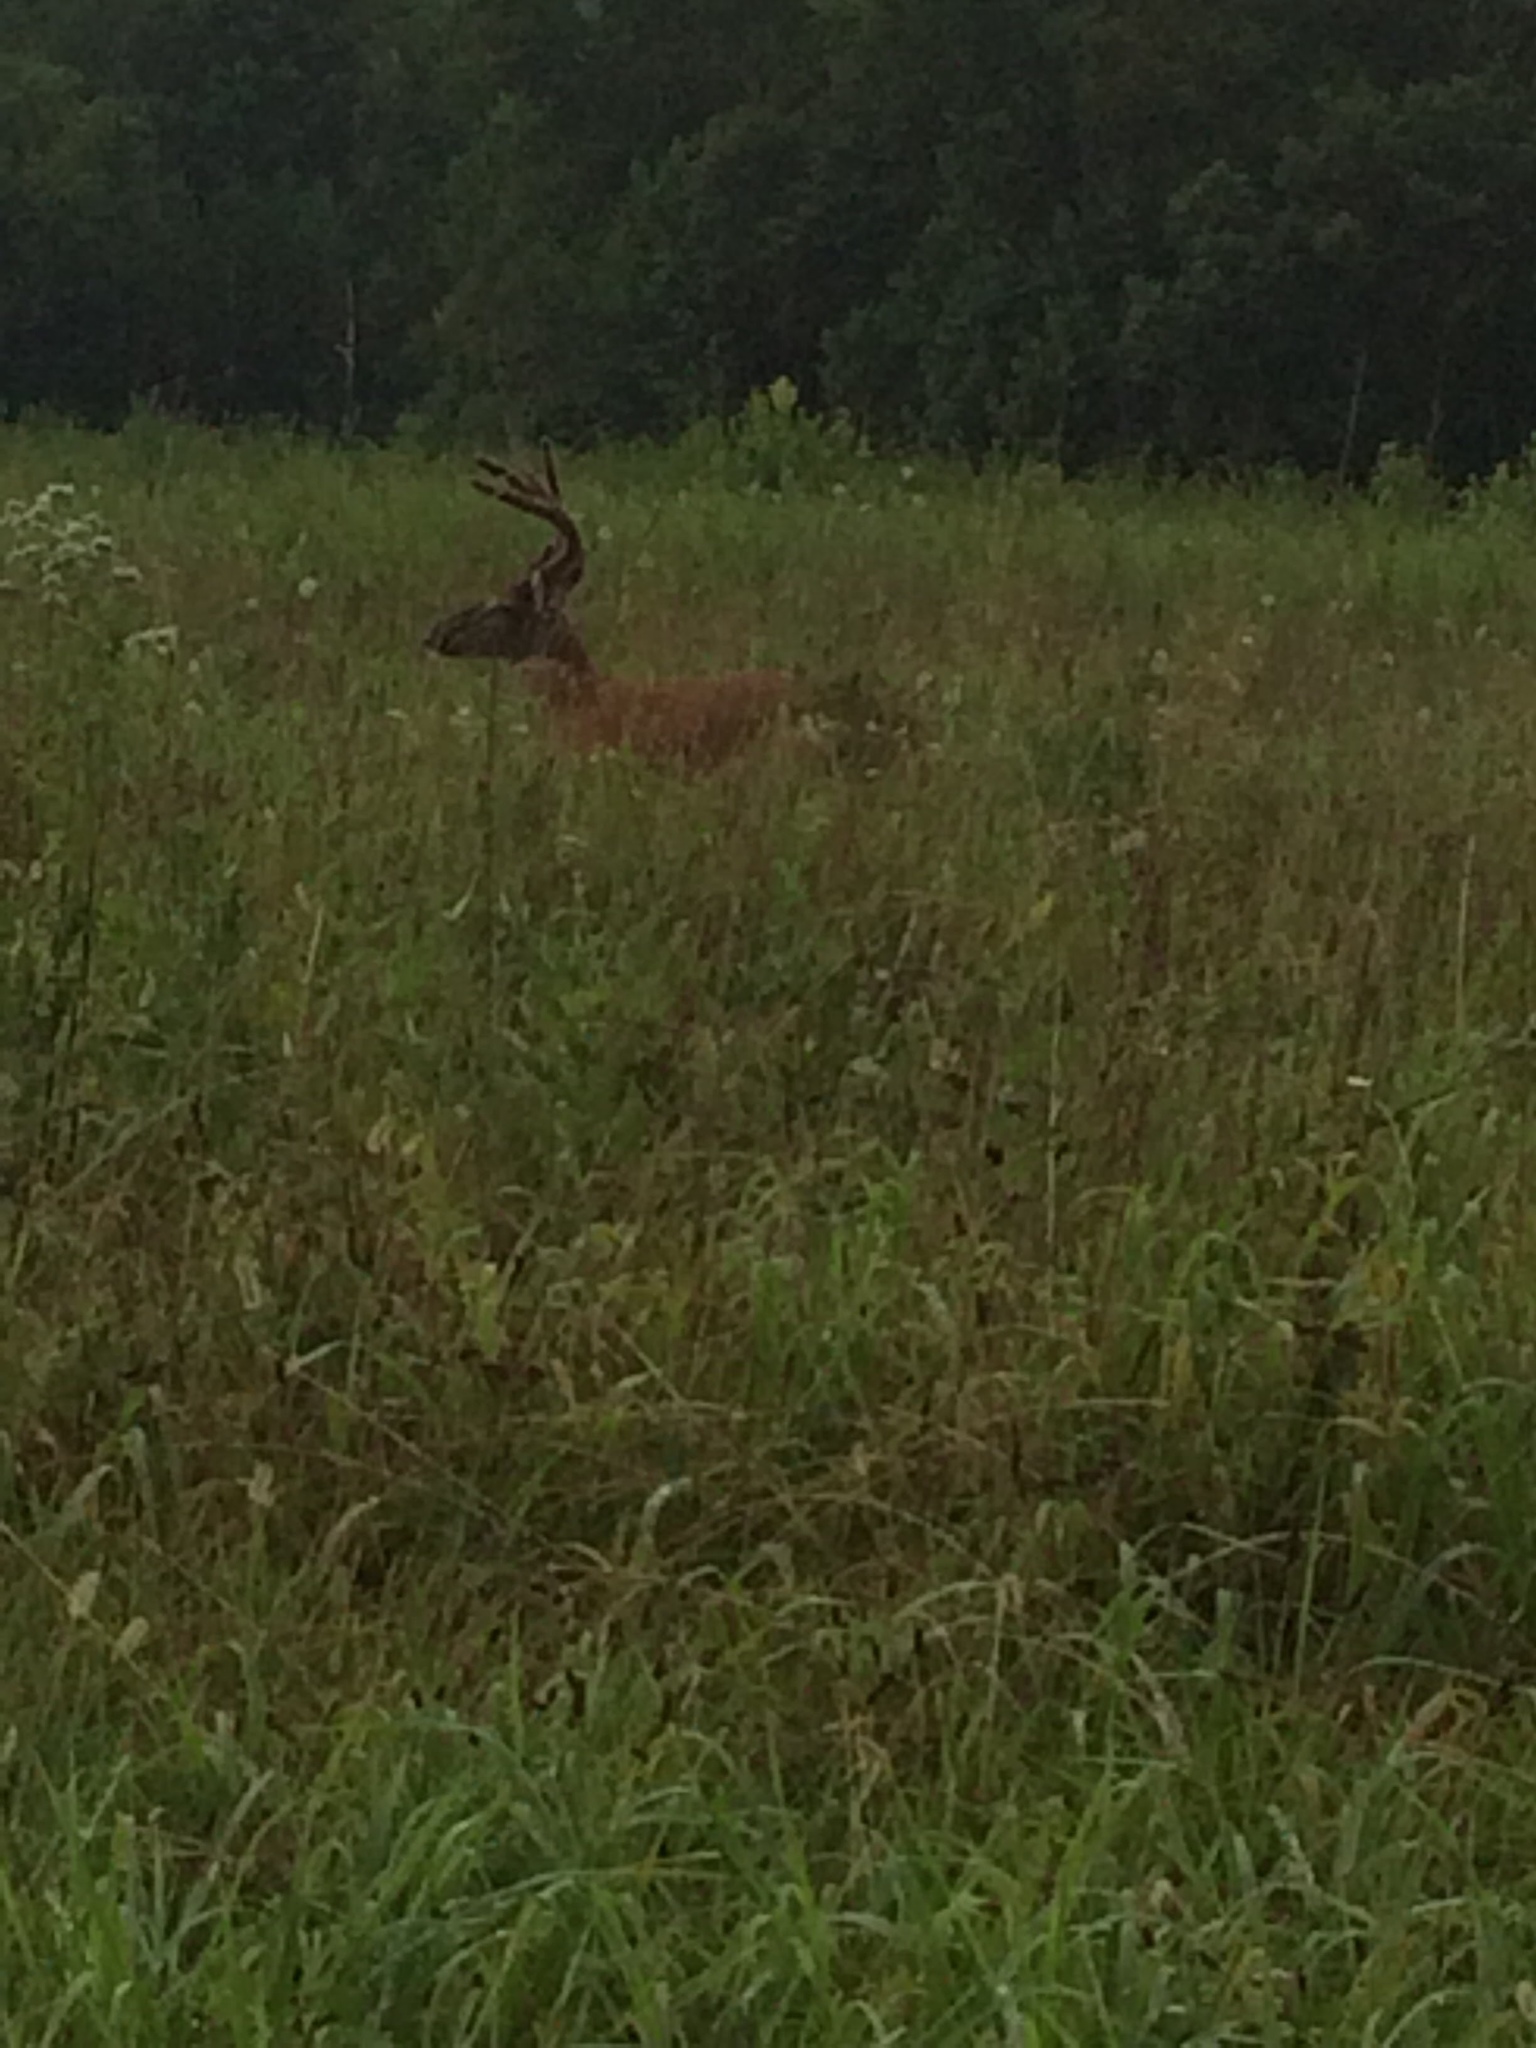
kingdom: Animalia
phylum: Chordata
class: Mammalia
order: Artiodactyla
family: Cervidae
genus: Odocoileus
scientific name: Odocoileus virginianus
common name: White-tailed deer
